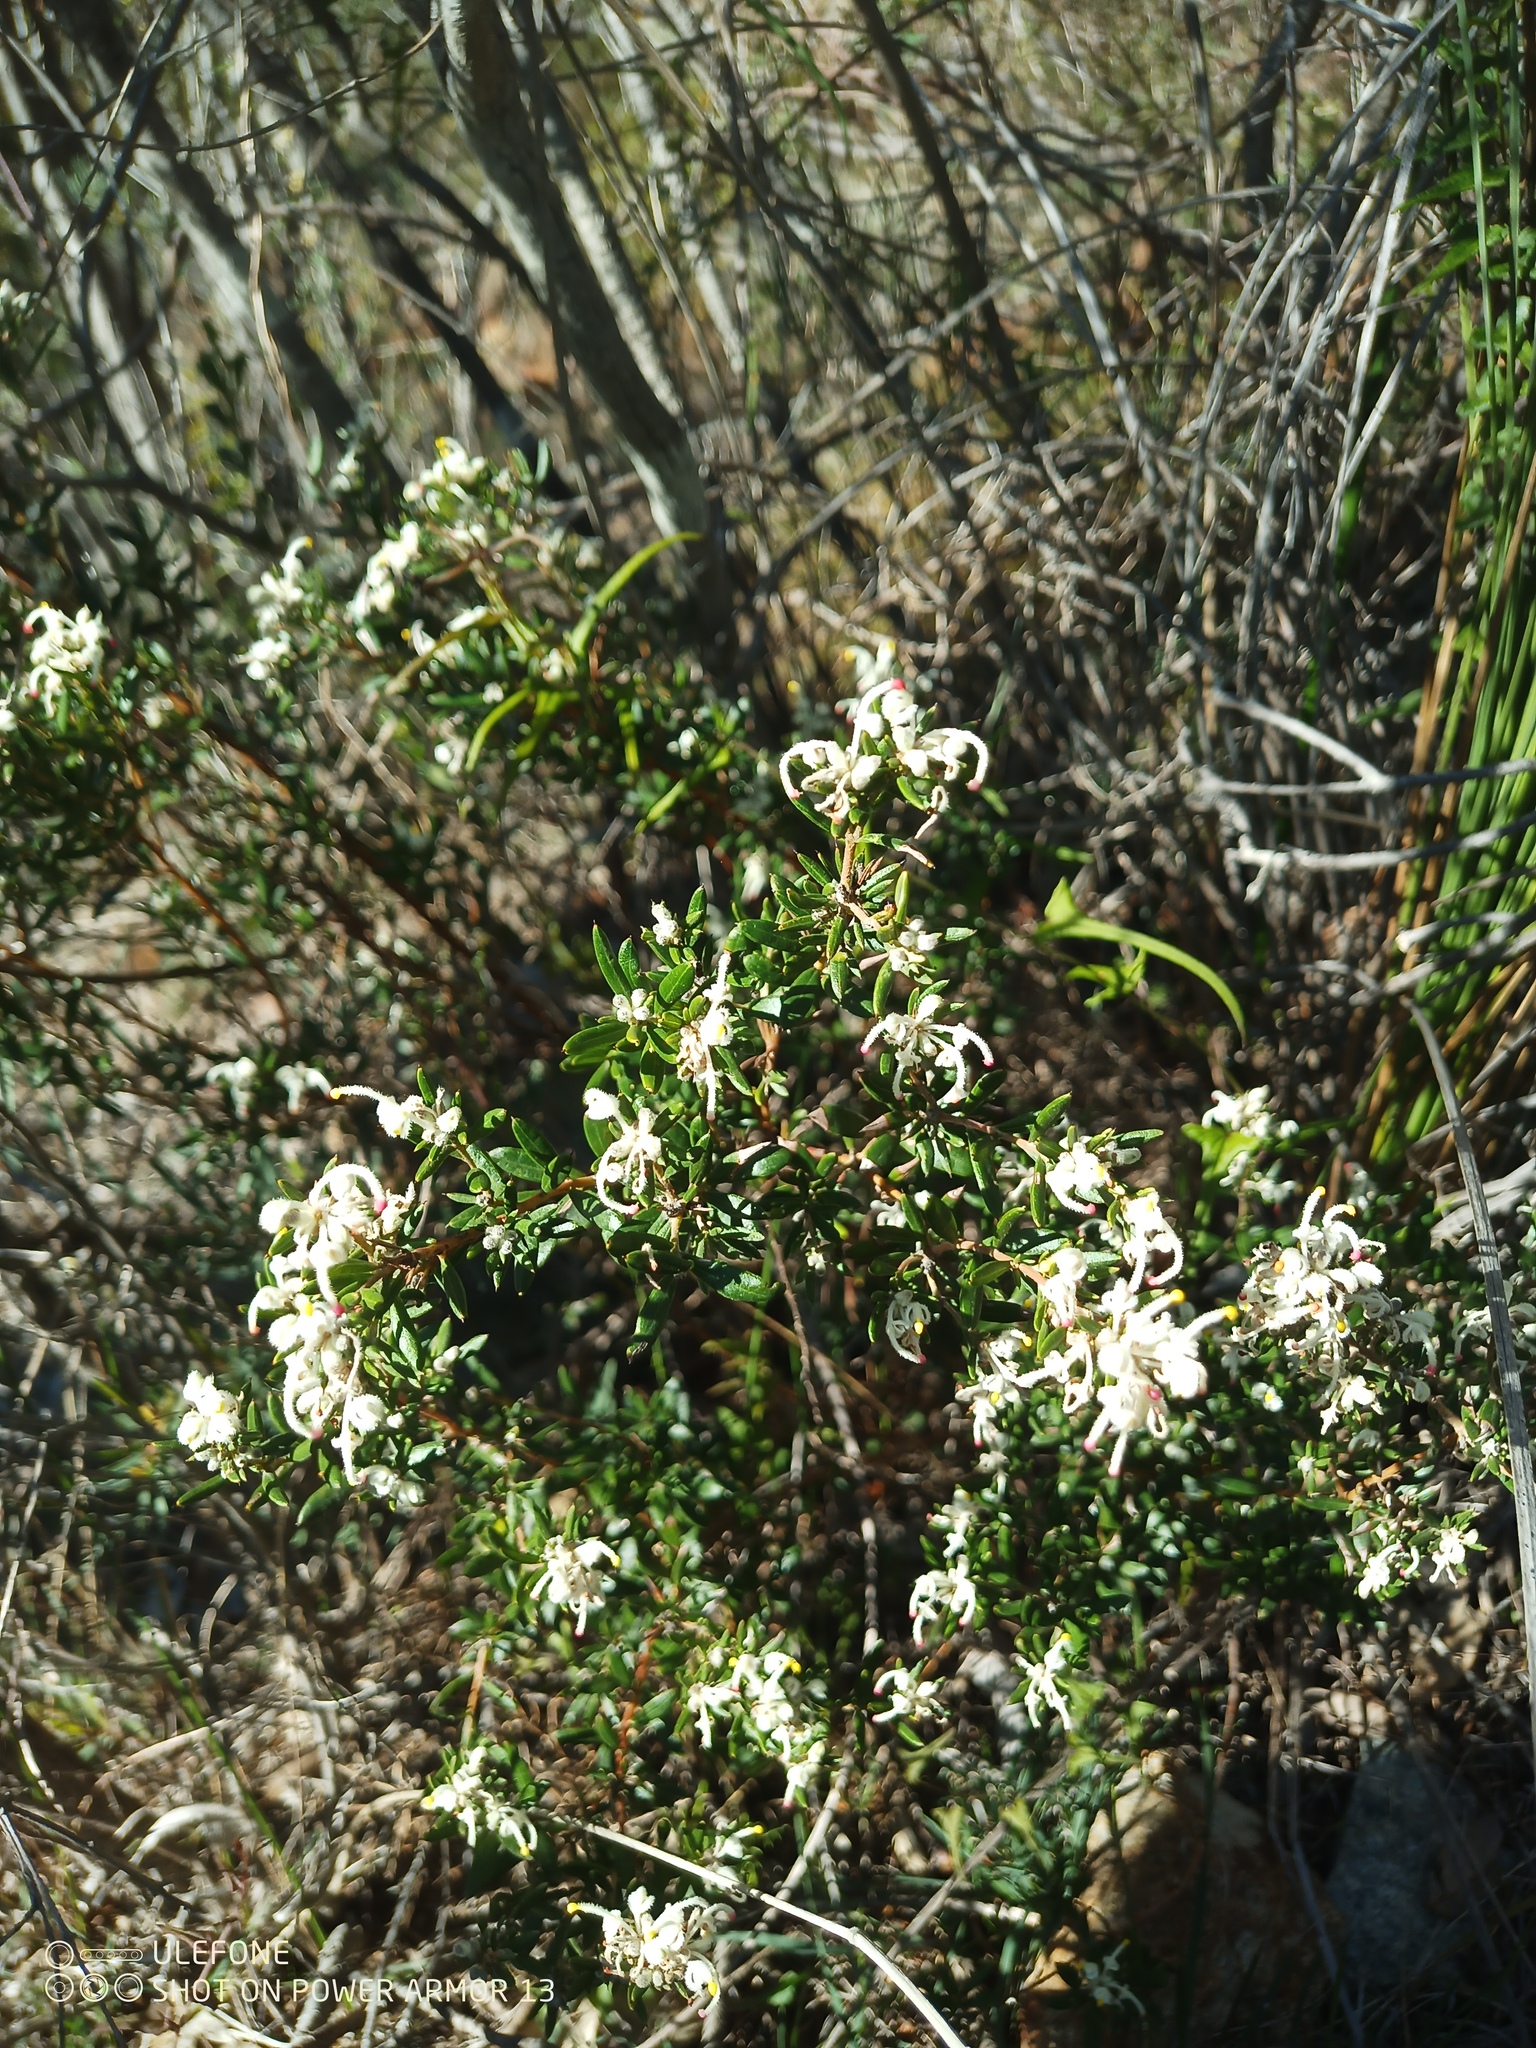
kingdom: Plantae
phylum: Tracheophyta
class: Magnoliopsida
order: Proteales
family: Proteaceae
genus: Grevillea
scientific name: Grevillea pilulifera
